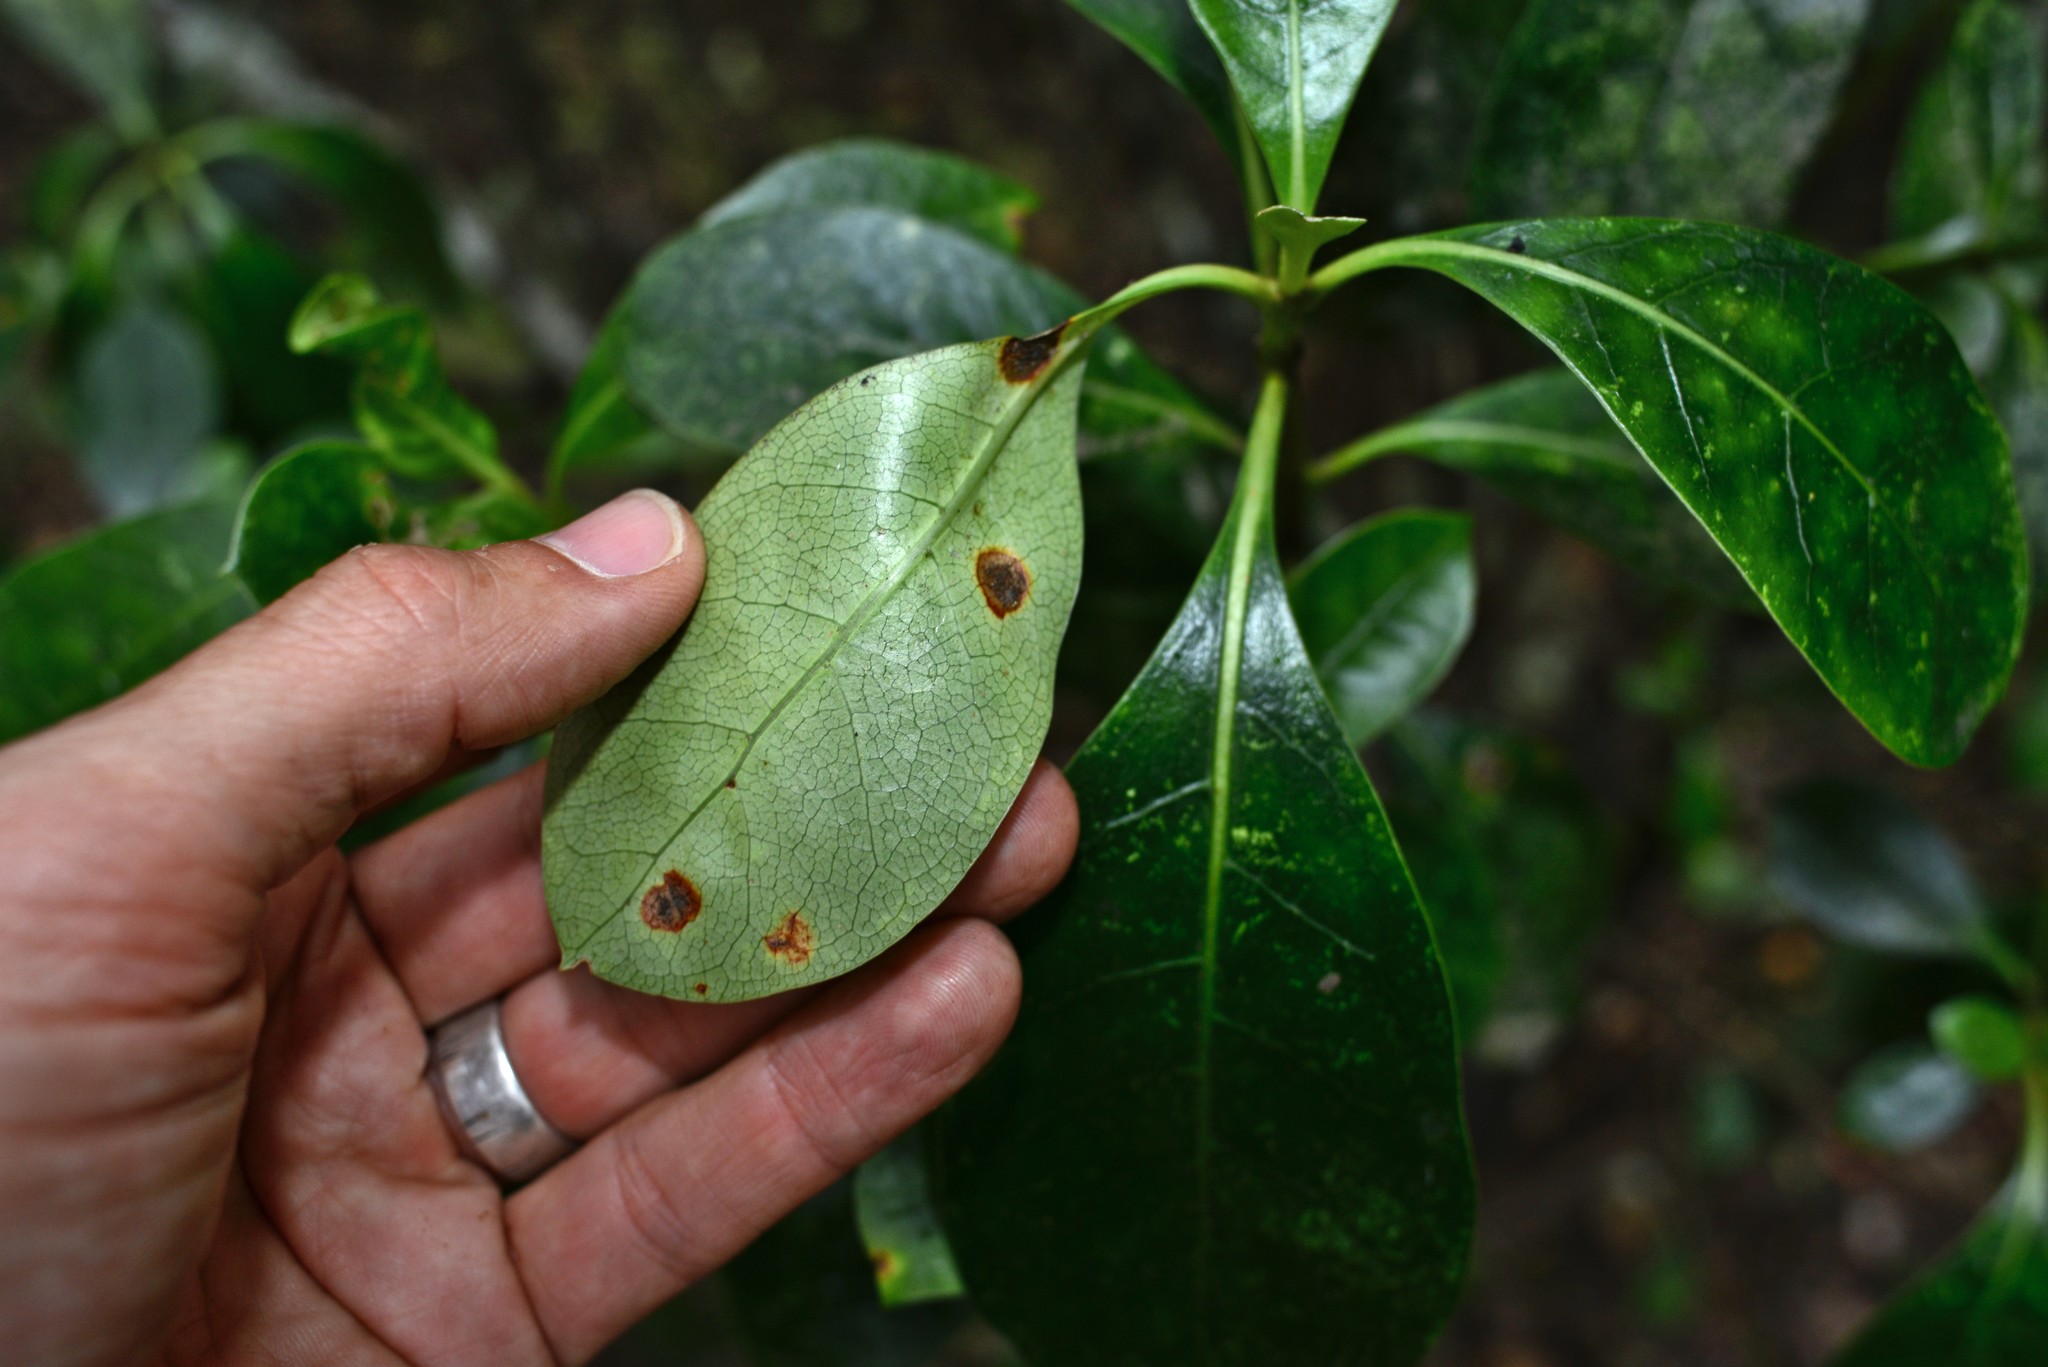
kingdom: Fungi
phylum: Basidiomycota
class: Pucciniomycetes
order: Pucciniales
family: Pucciniaceae
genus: Puccinia
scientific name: Puccinia coprosmae
